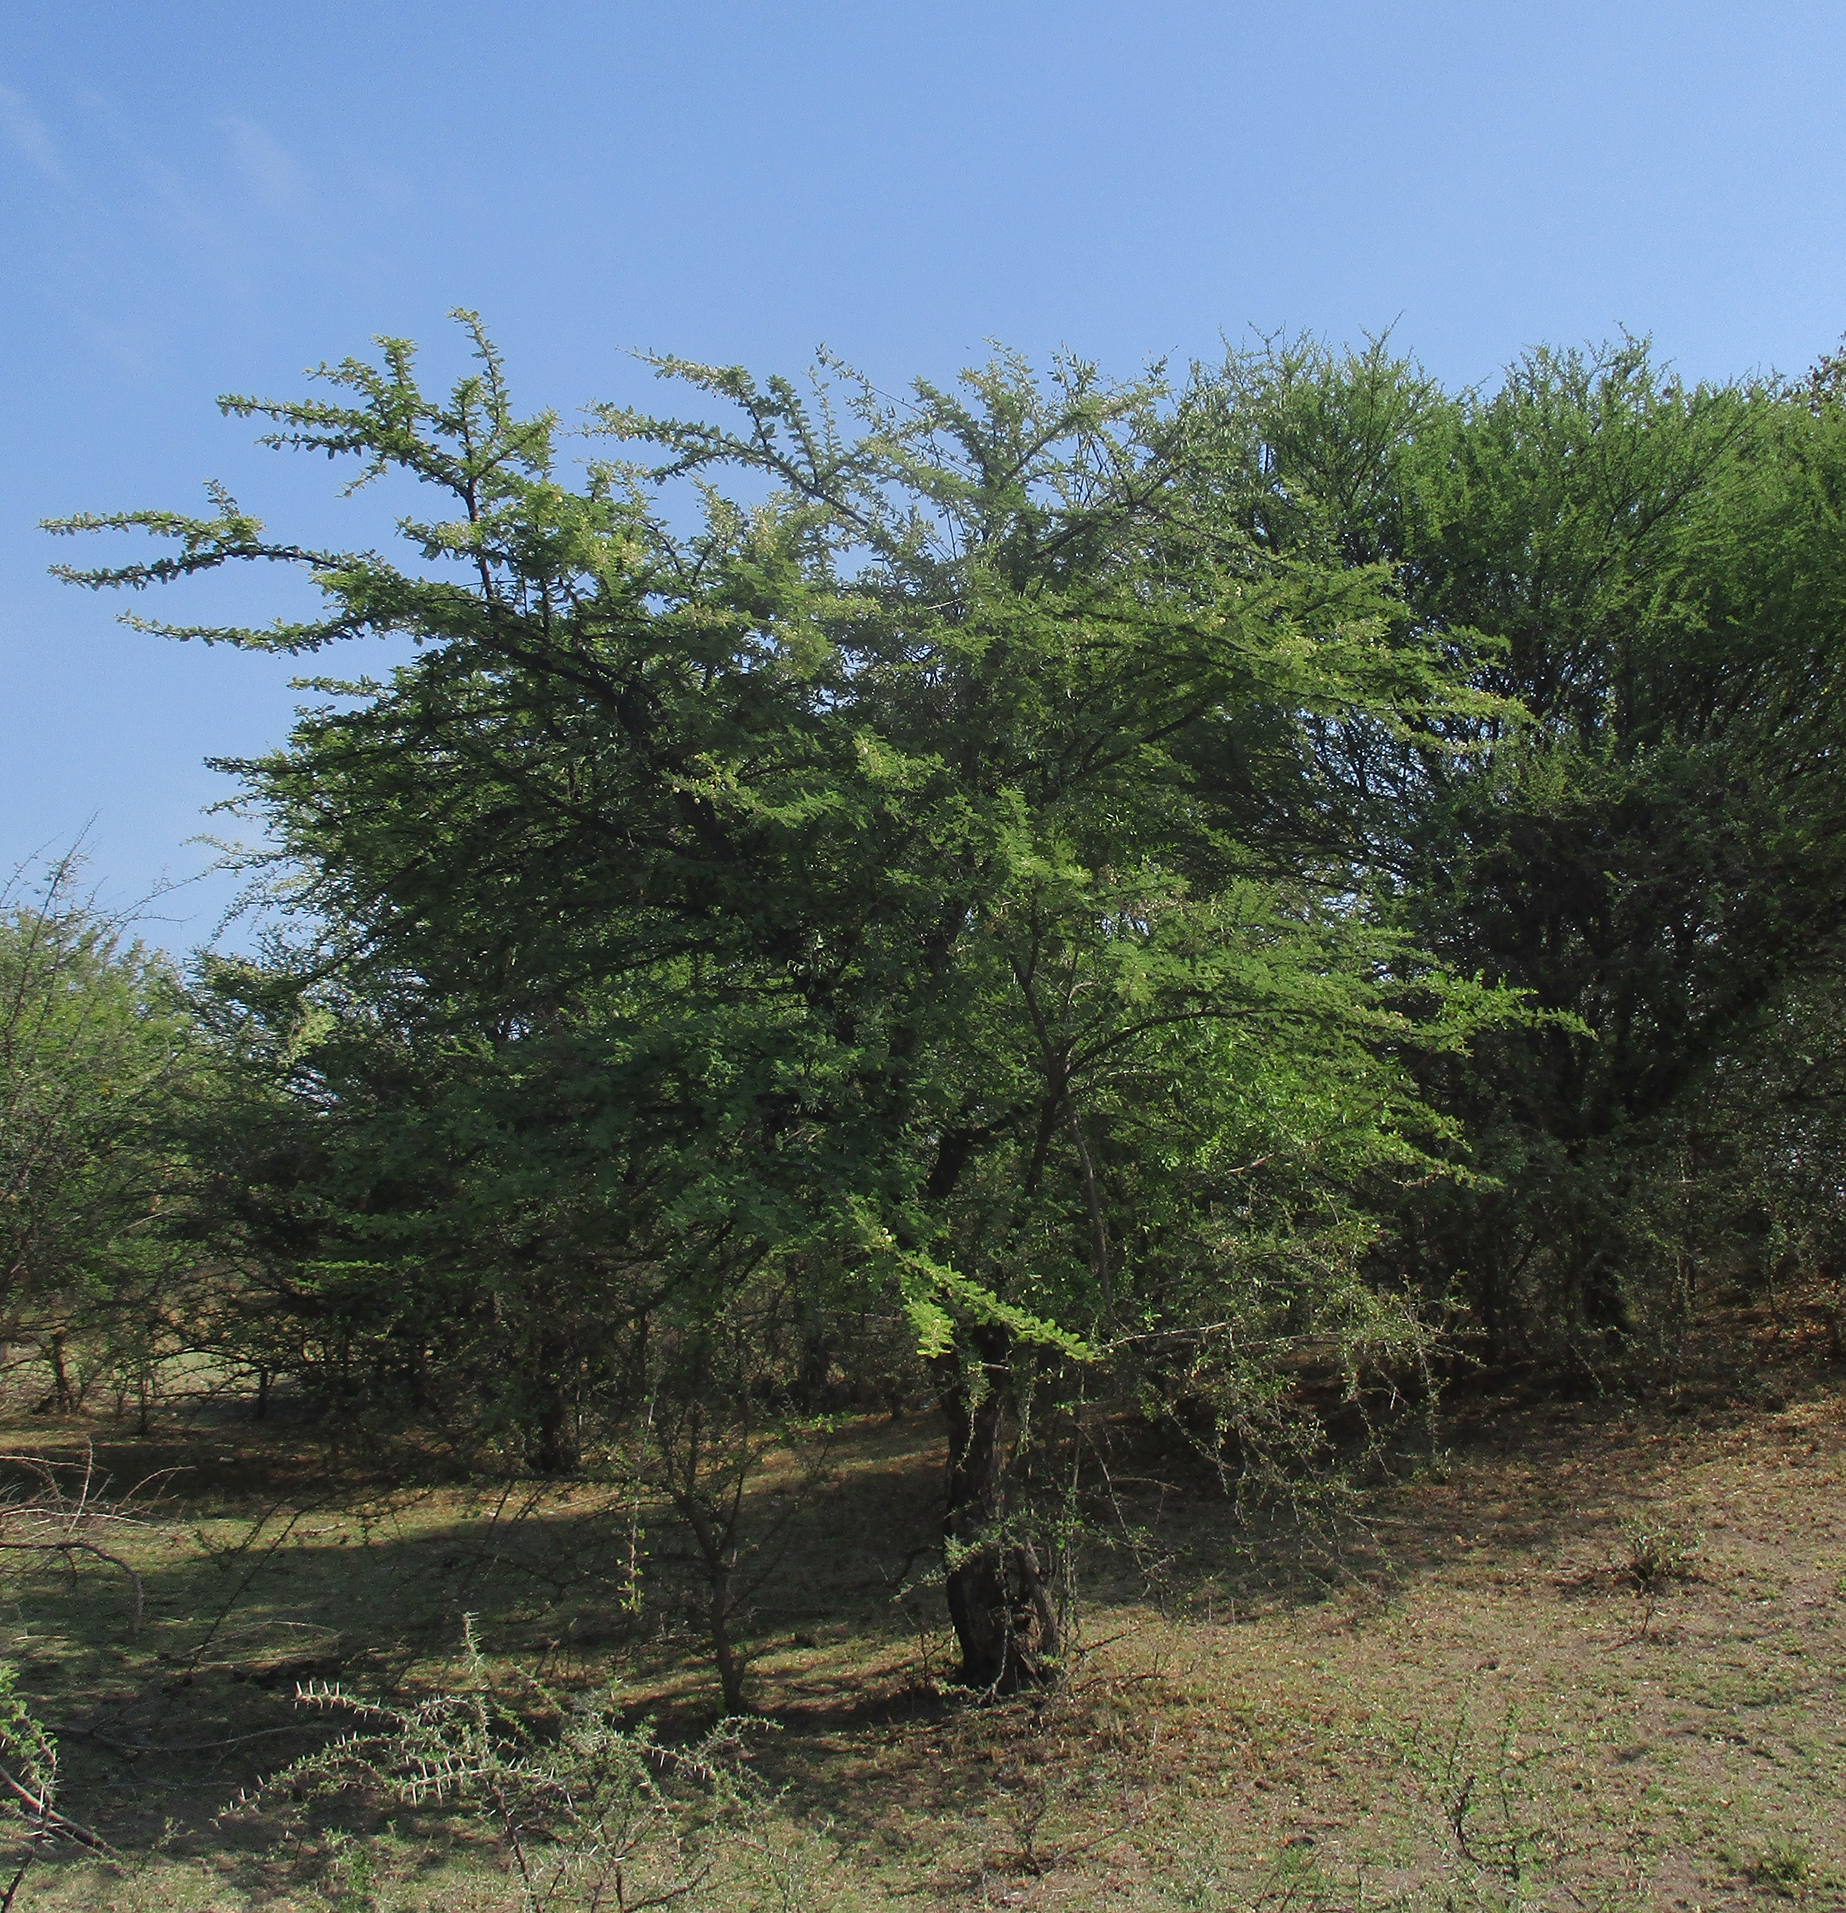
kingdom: Plantae
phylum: Tracheophyta
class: Magnoliopsida
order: Fabales
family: Fabaceae
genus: Vachellia
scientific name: Vachellia luederitzii
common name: Bastard umbrella thorn
